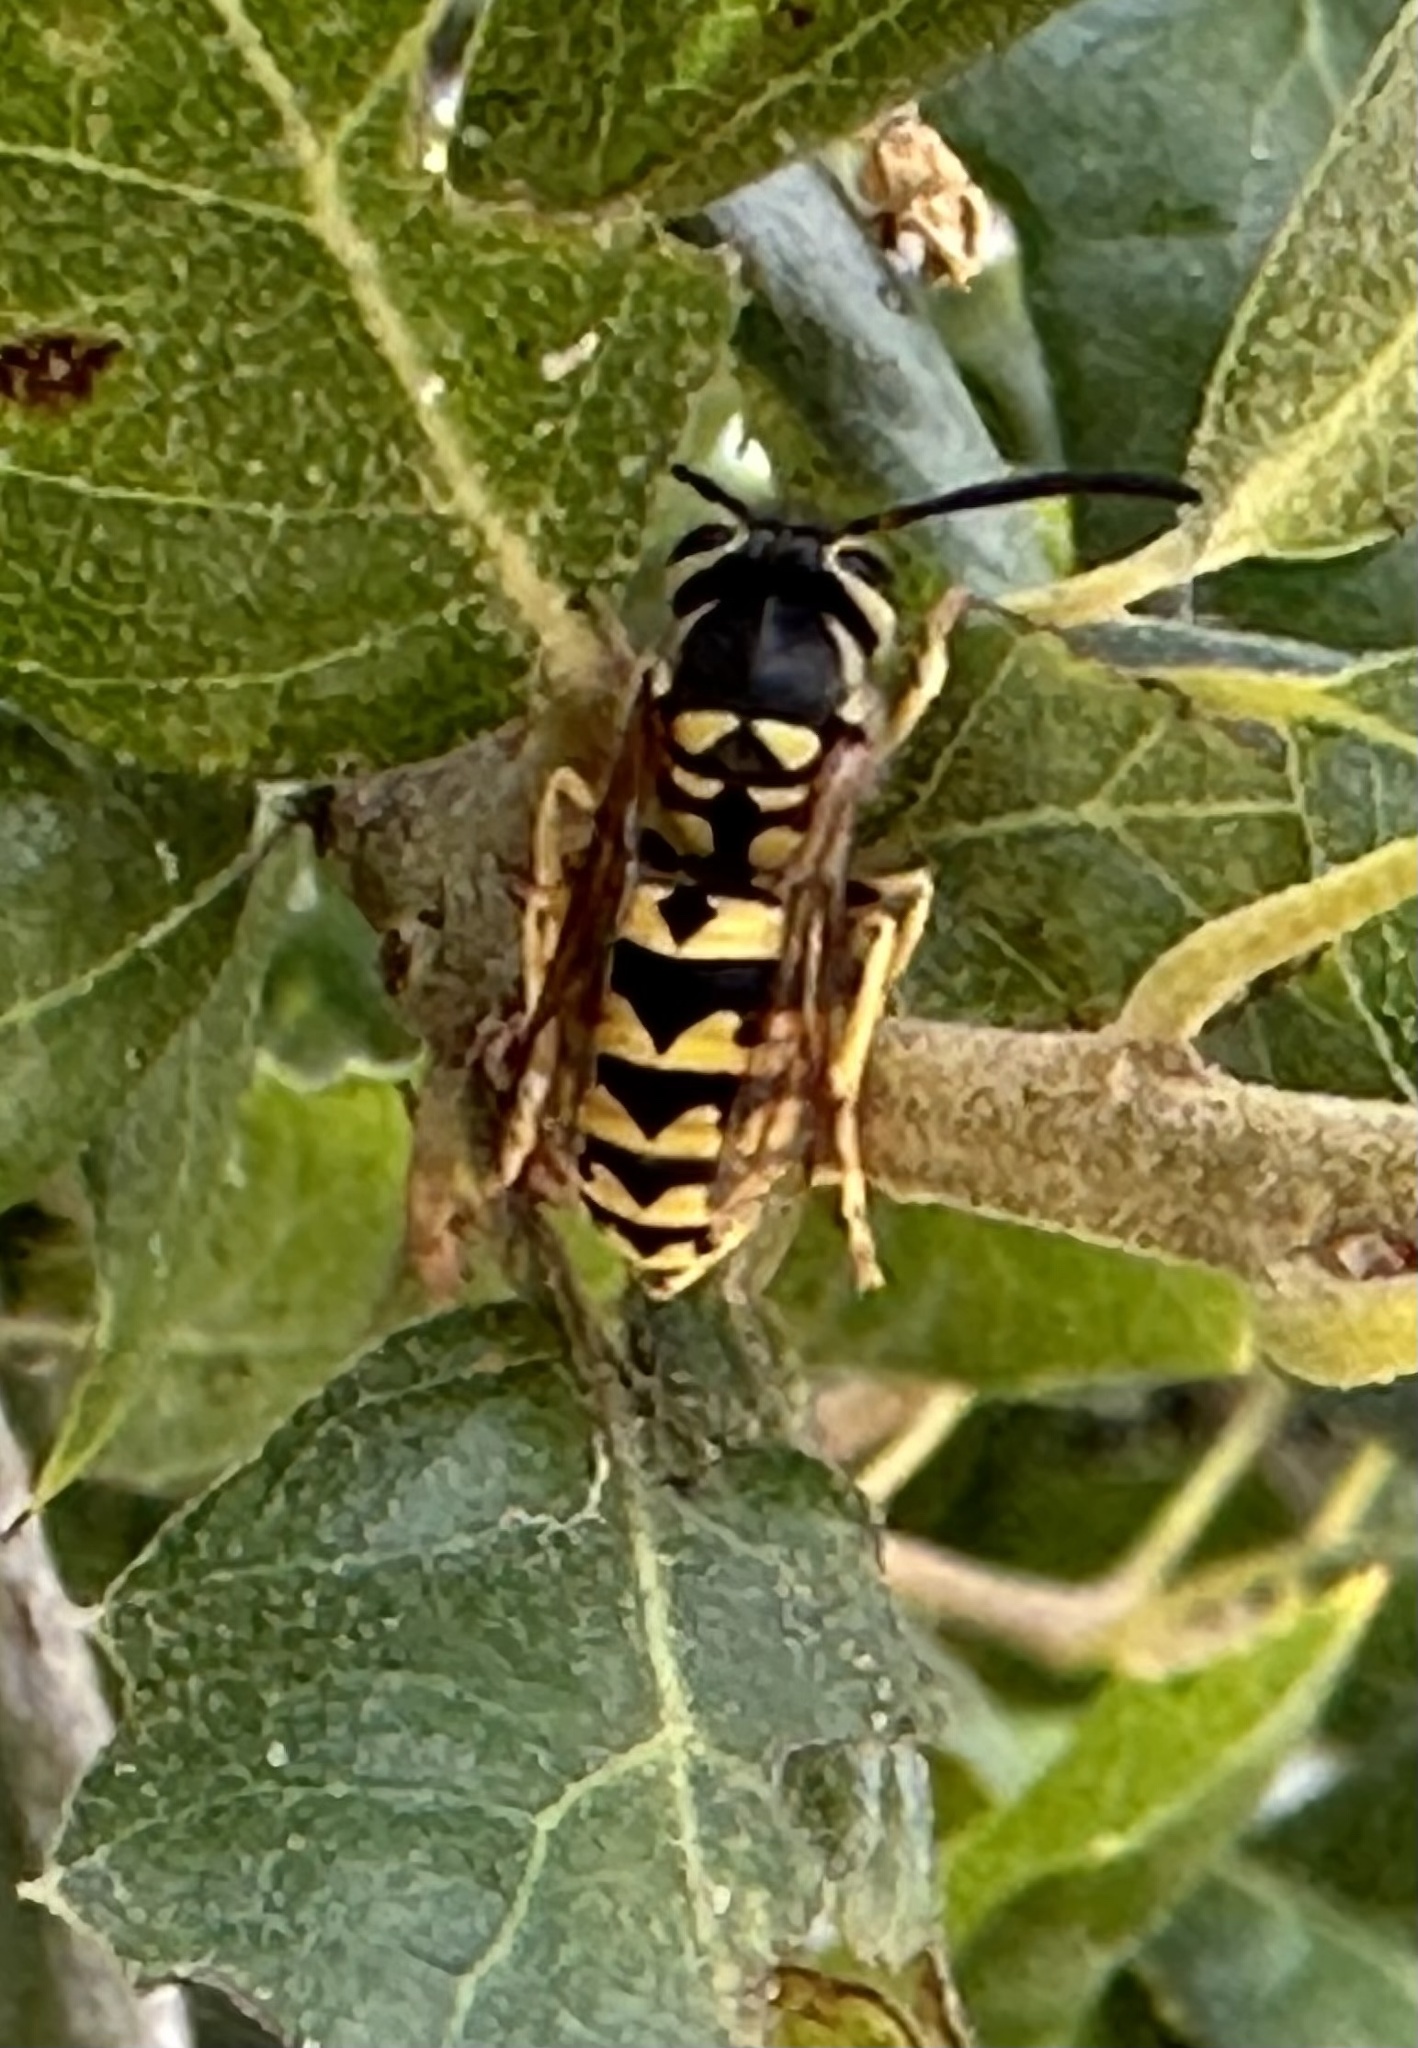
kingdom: Animalia
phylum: Arthropoda
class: Insecta
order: Hymenoptera
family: Vespidae
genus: Vespula
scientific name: Vespula pensylvanica
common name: Western yellowjacket
